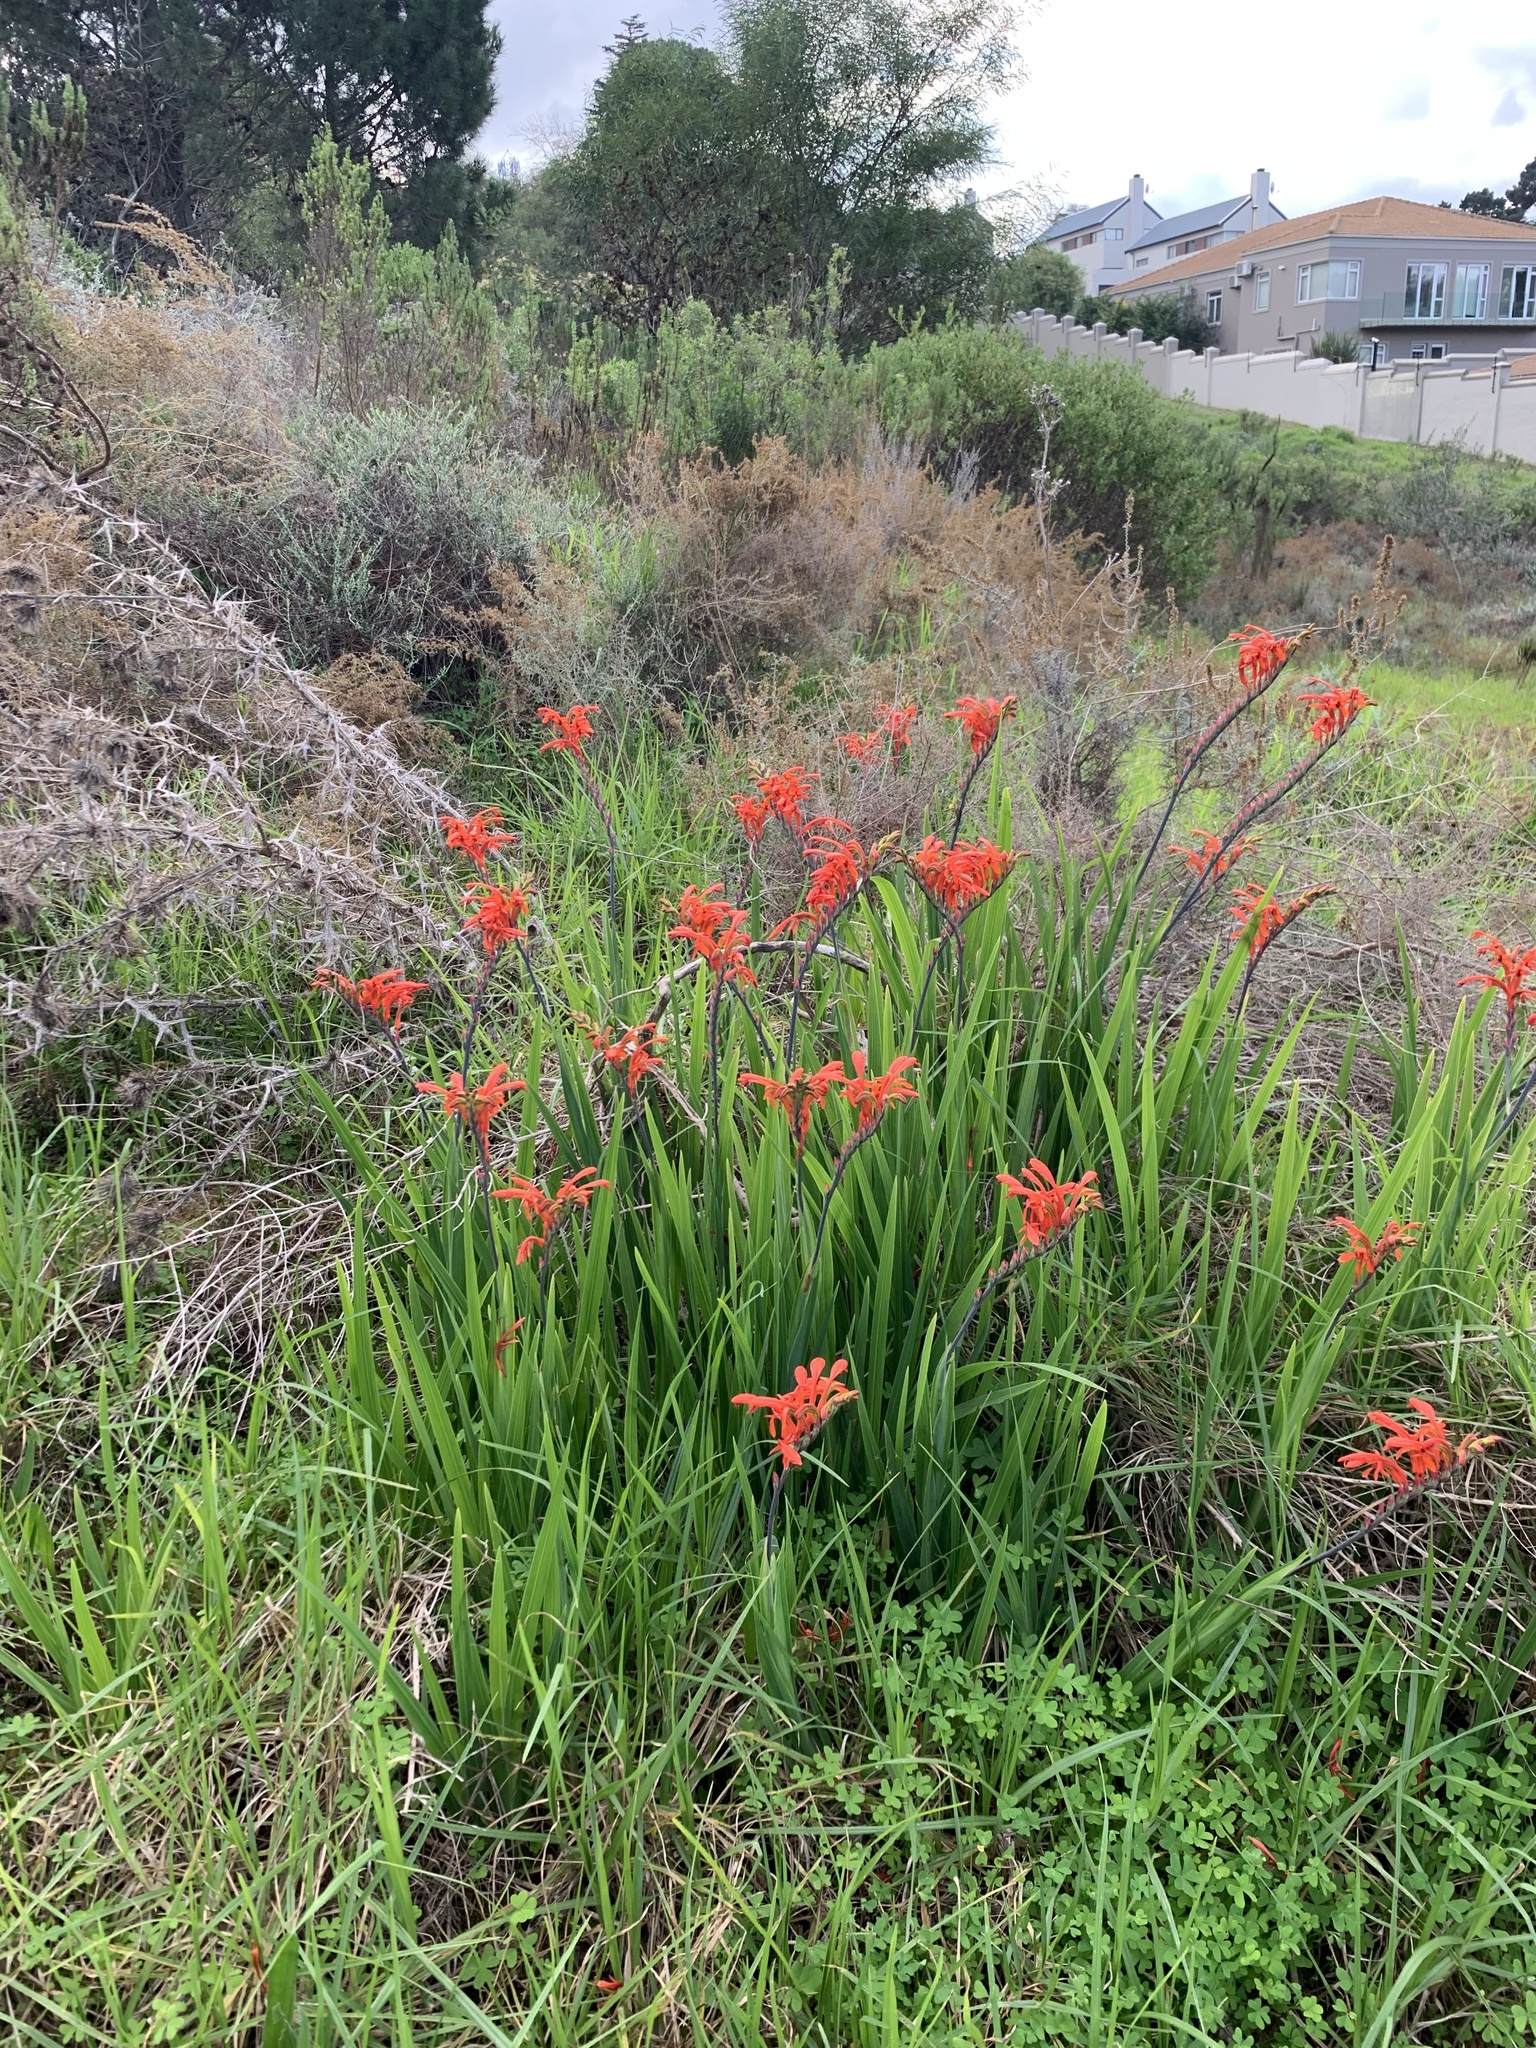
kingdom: Plantae
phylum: Tracheophyta
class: Liliopsida
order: Asparagales
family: Iridaceae
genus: Chasmanthe
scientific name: Chasmanthe aethiopica
